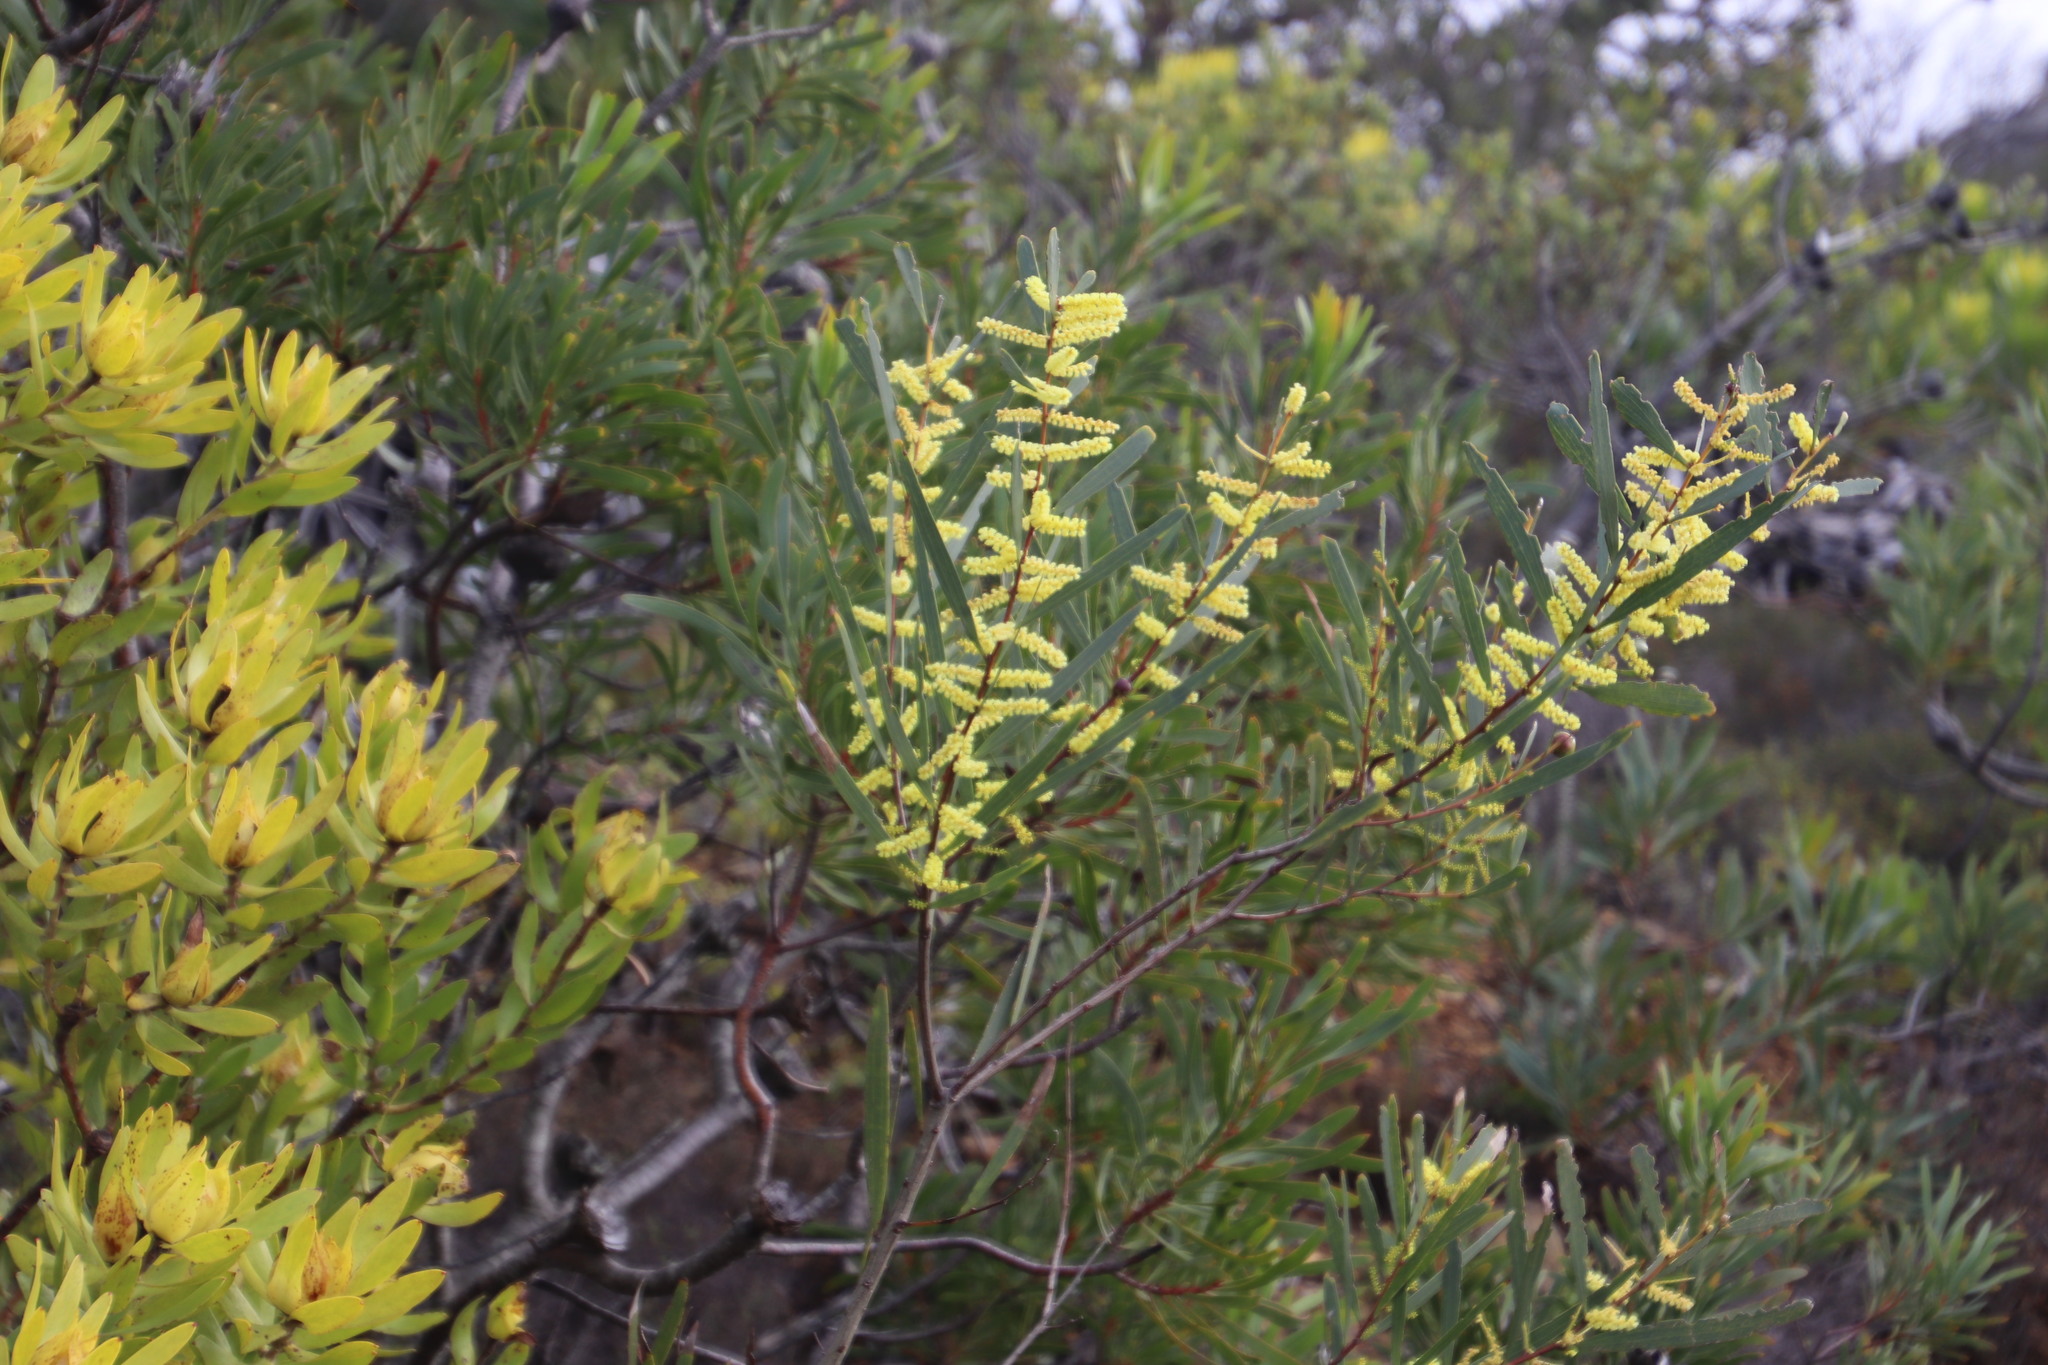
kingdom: Plantae
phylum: Tracheophyta
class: Magnoliopsida
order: Fabales
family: Fabaceae
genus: Acacia
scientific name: Acacia longifolia
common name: Sydney golden wattle
